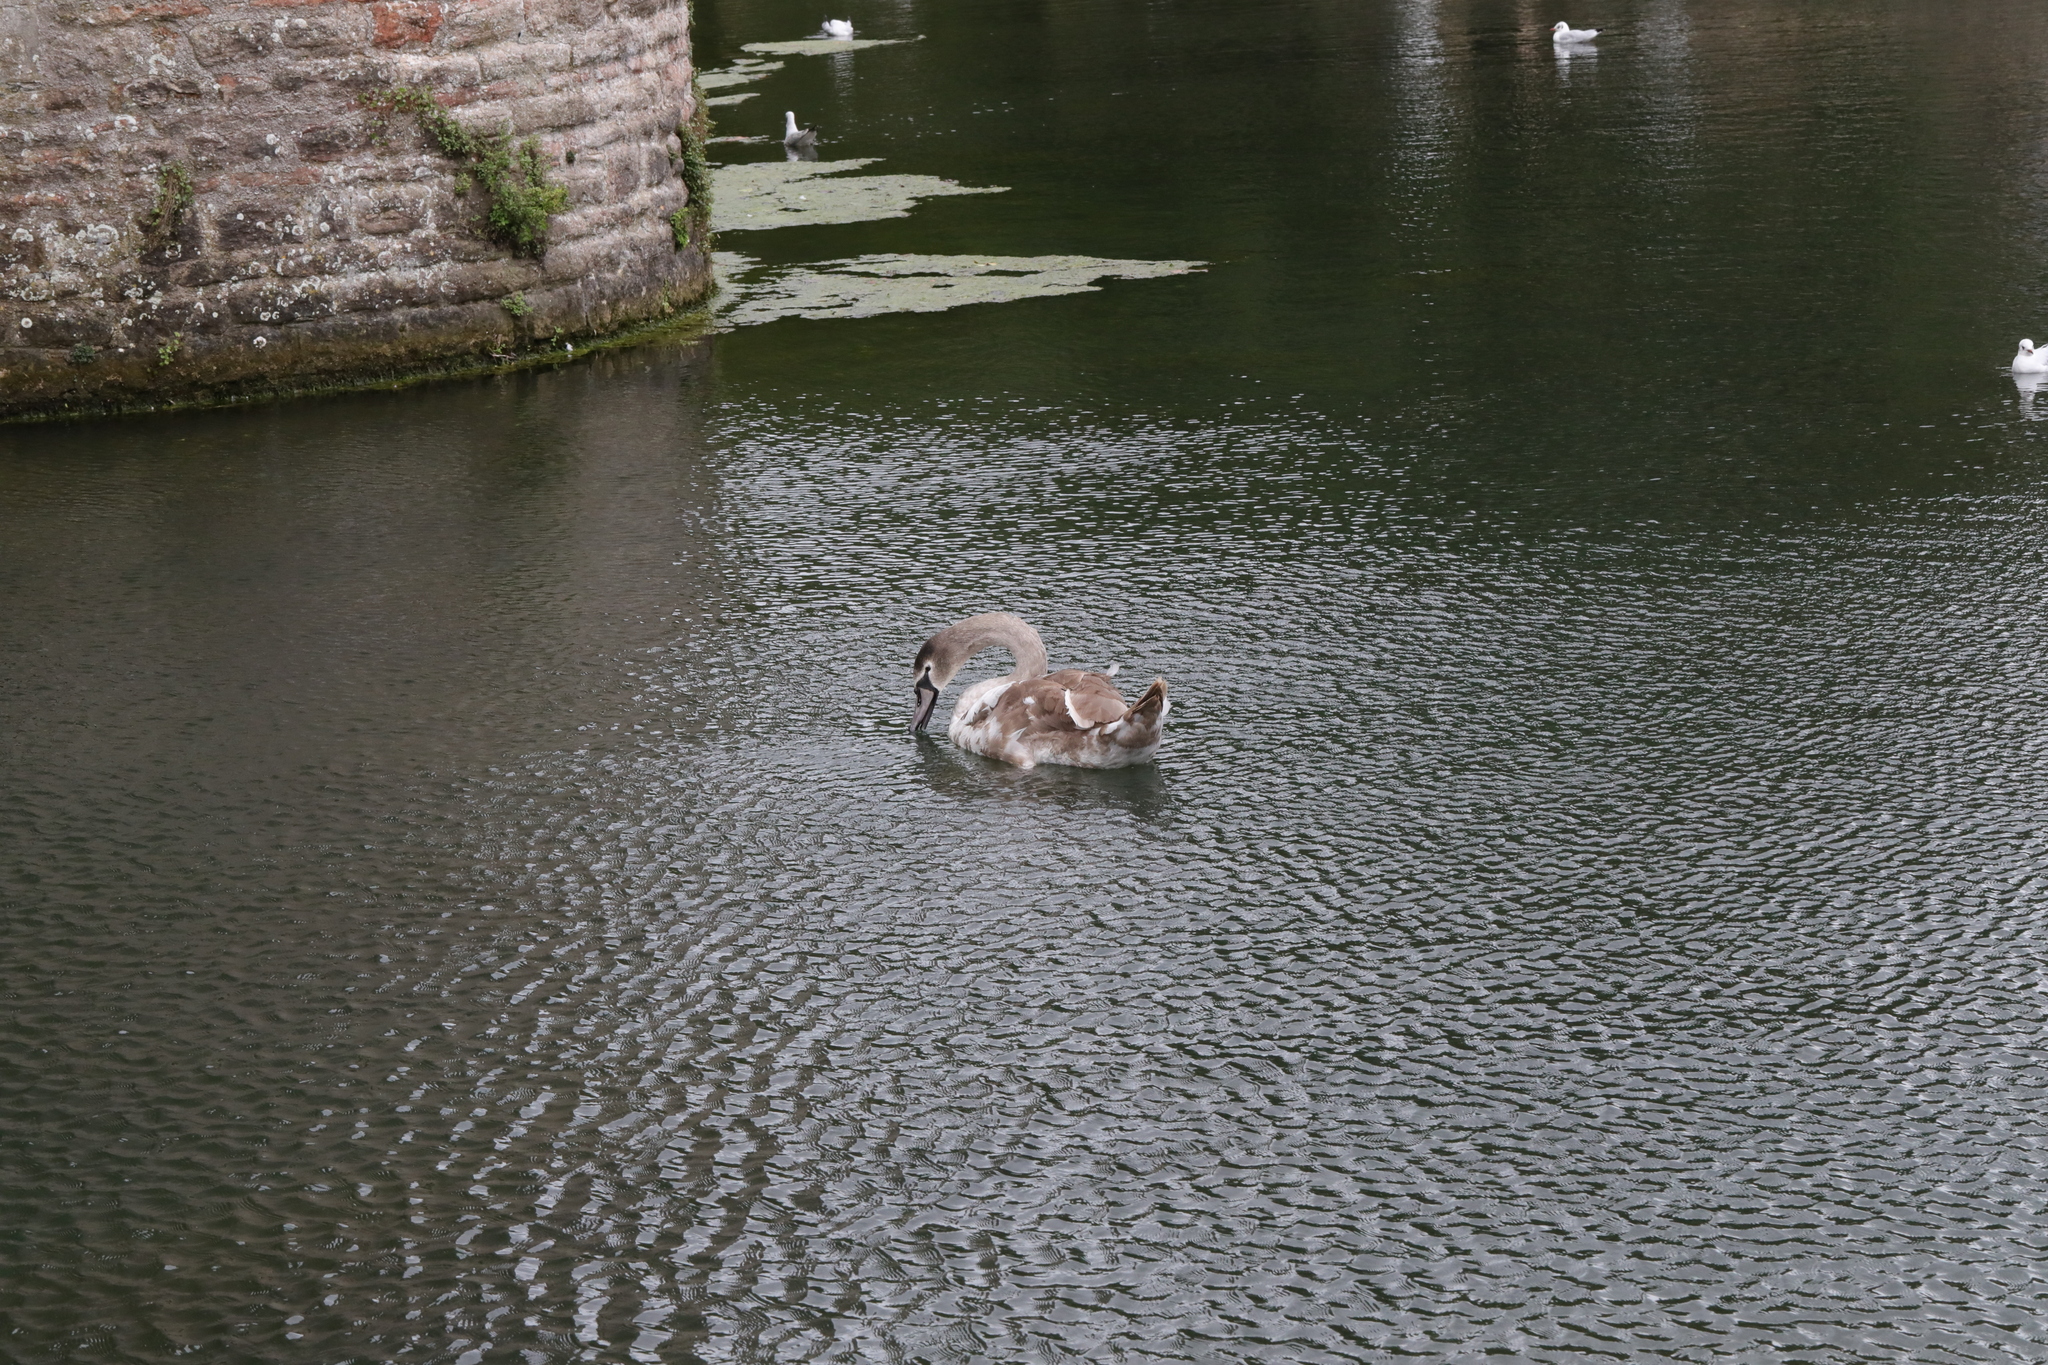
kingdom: Animalia
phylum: Chordata
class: Aves
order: Anseriformes
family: Anatidae
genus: Cygnus
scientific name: Cygnus olor
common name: Mute swan
